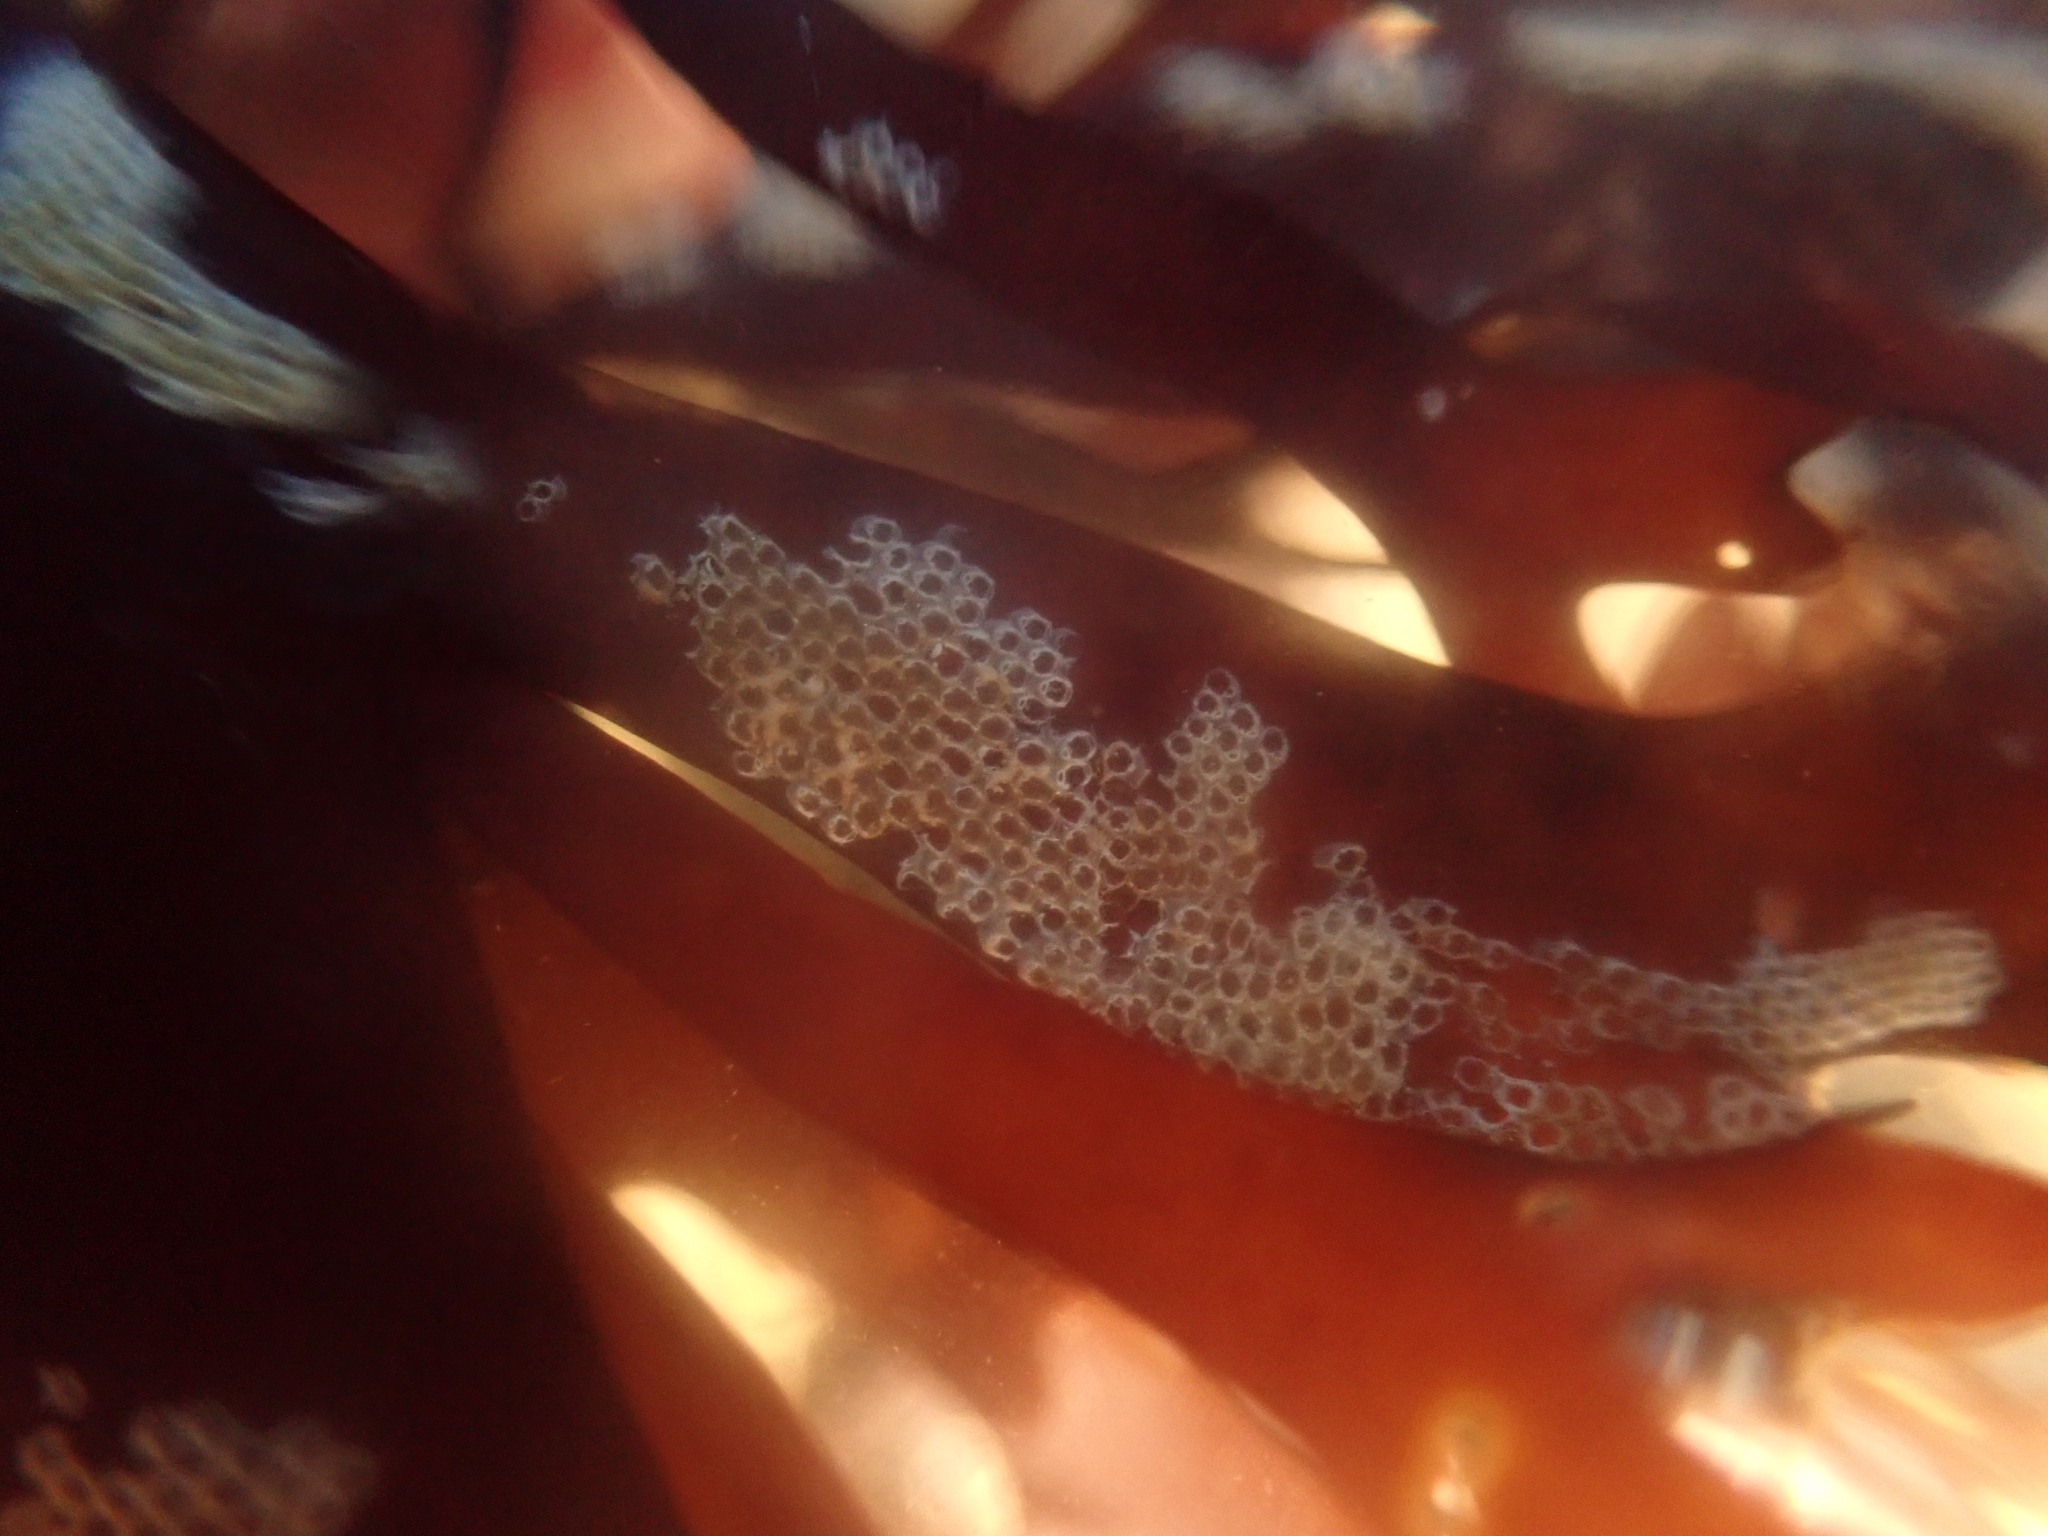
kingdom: Animalia
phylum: Bryozoa
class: Gymnolaemata
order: Cheilostomatida
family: Electridae
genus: Electra
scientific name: Electra pilosa
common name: Hairy sea-mat
